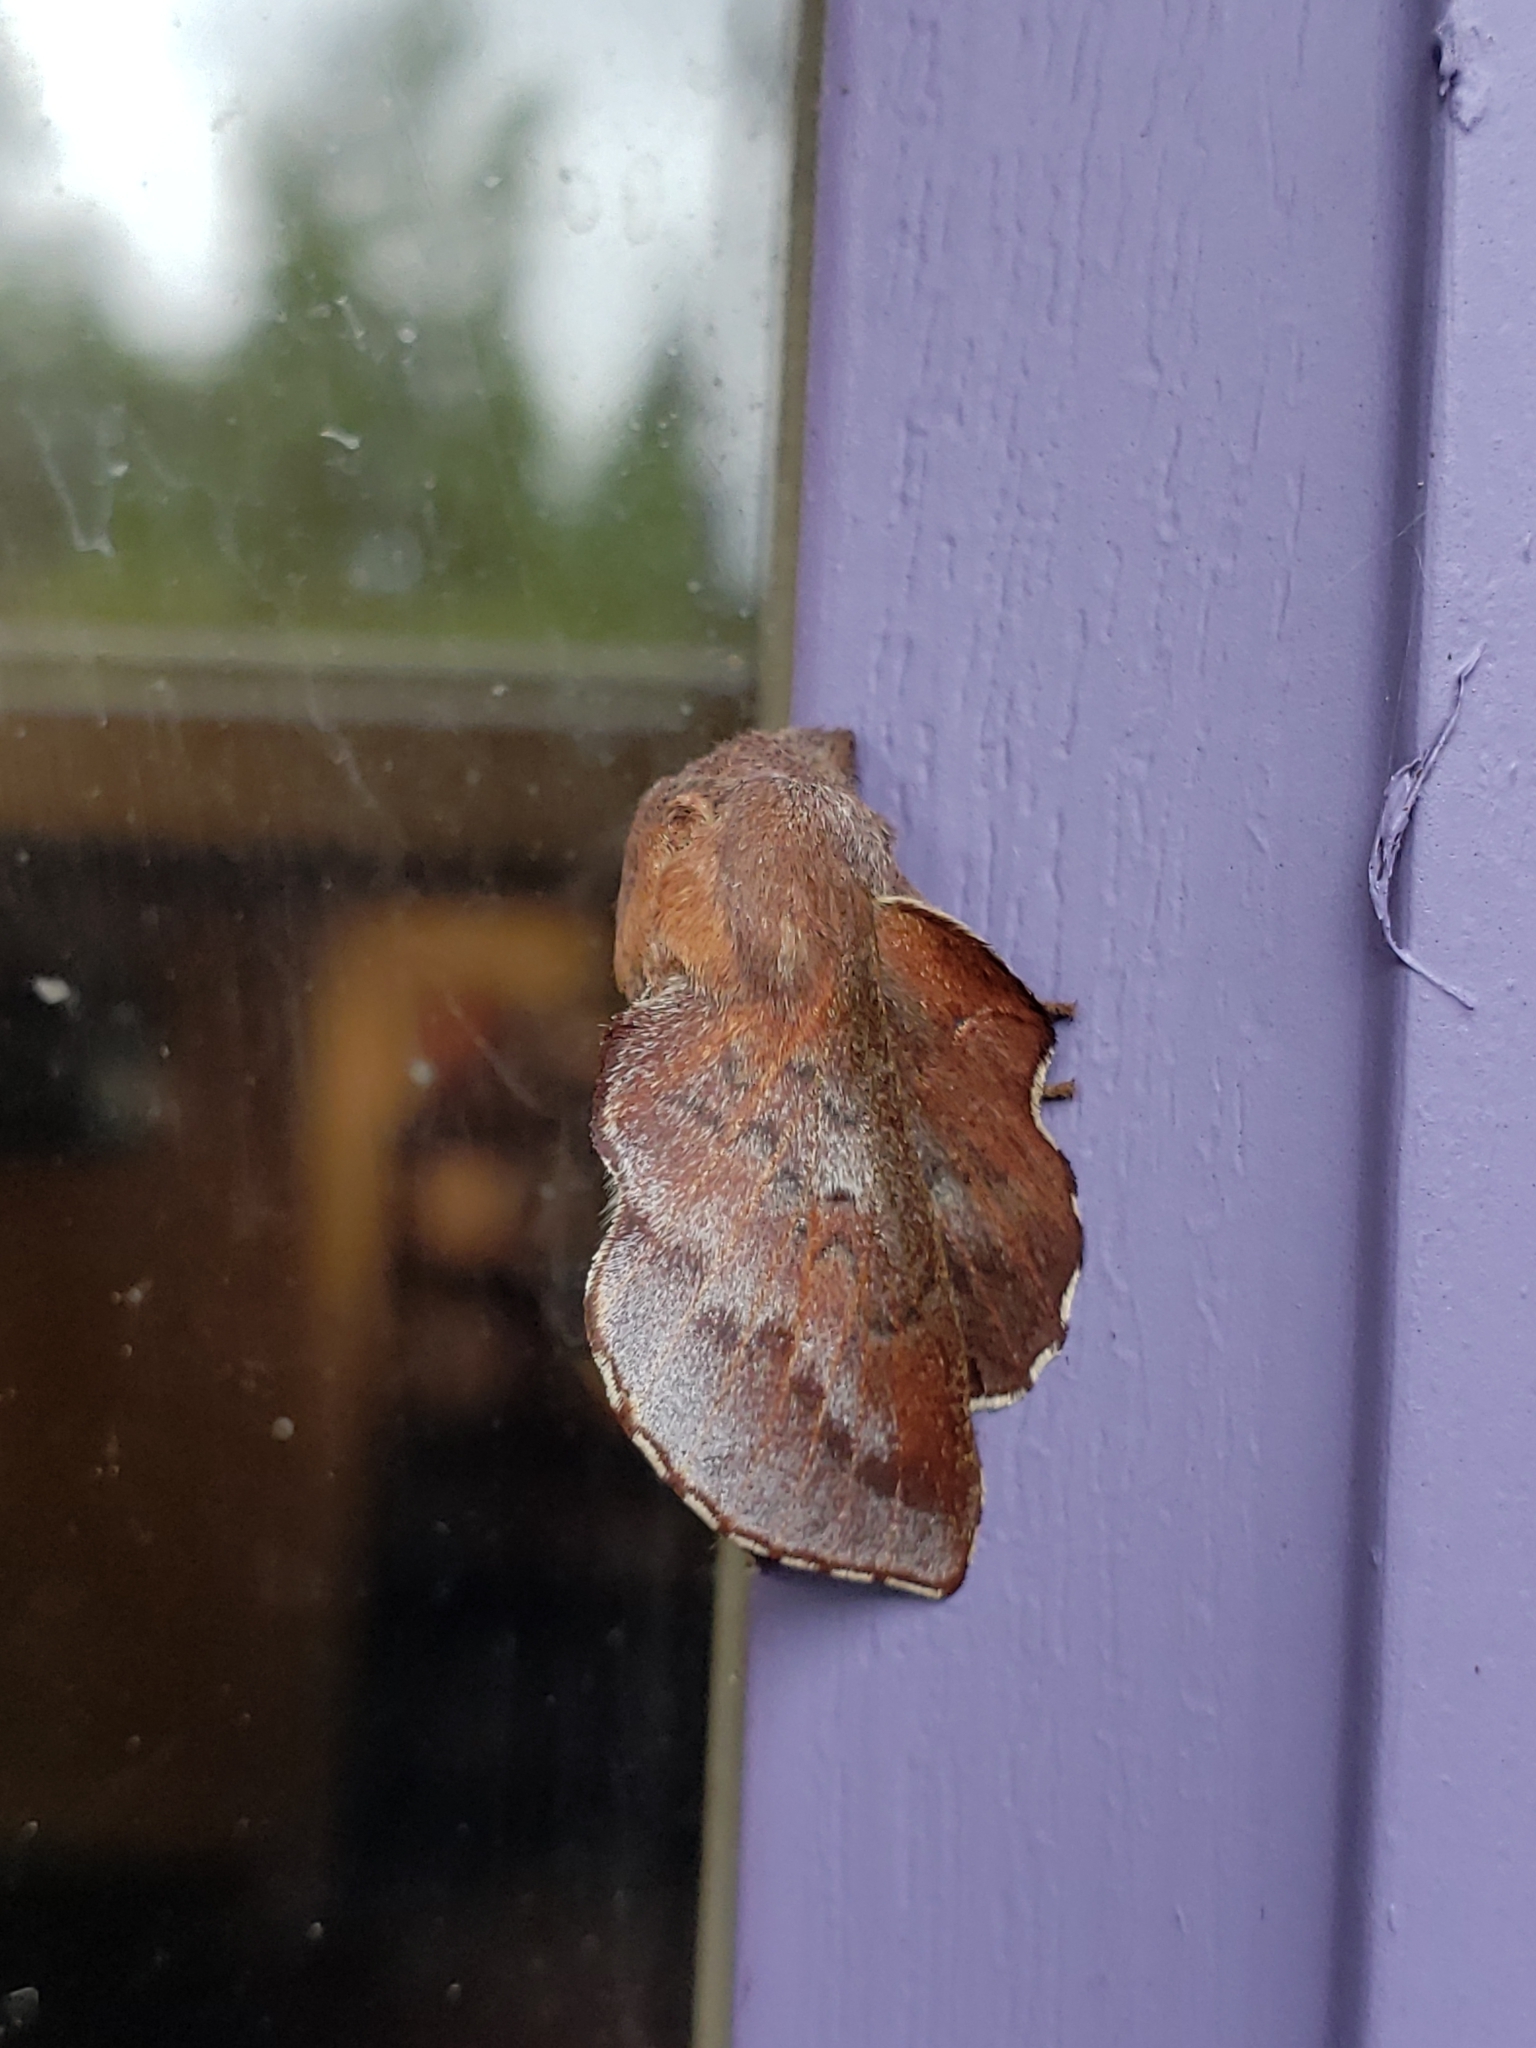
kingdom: Animalia
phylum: Arthropoda
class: Insecta
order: Lepidoptera
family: Lasiocampidae
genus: Phyllodesma
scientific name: Phyllodesma americana
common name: American lappet moth
